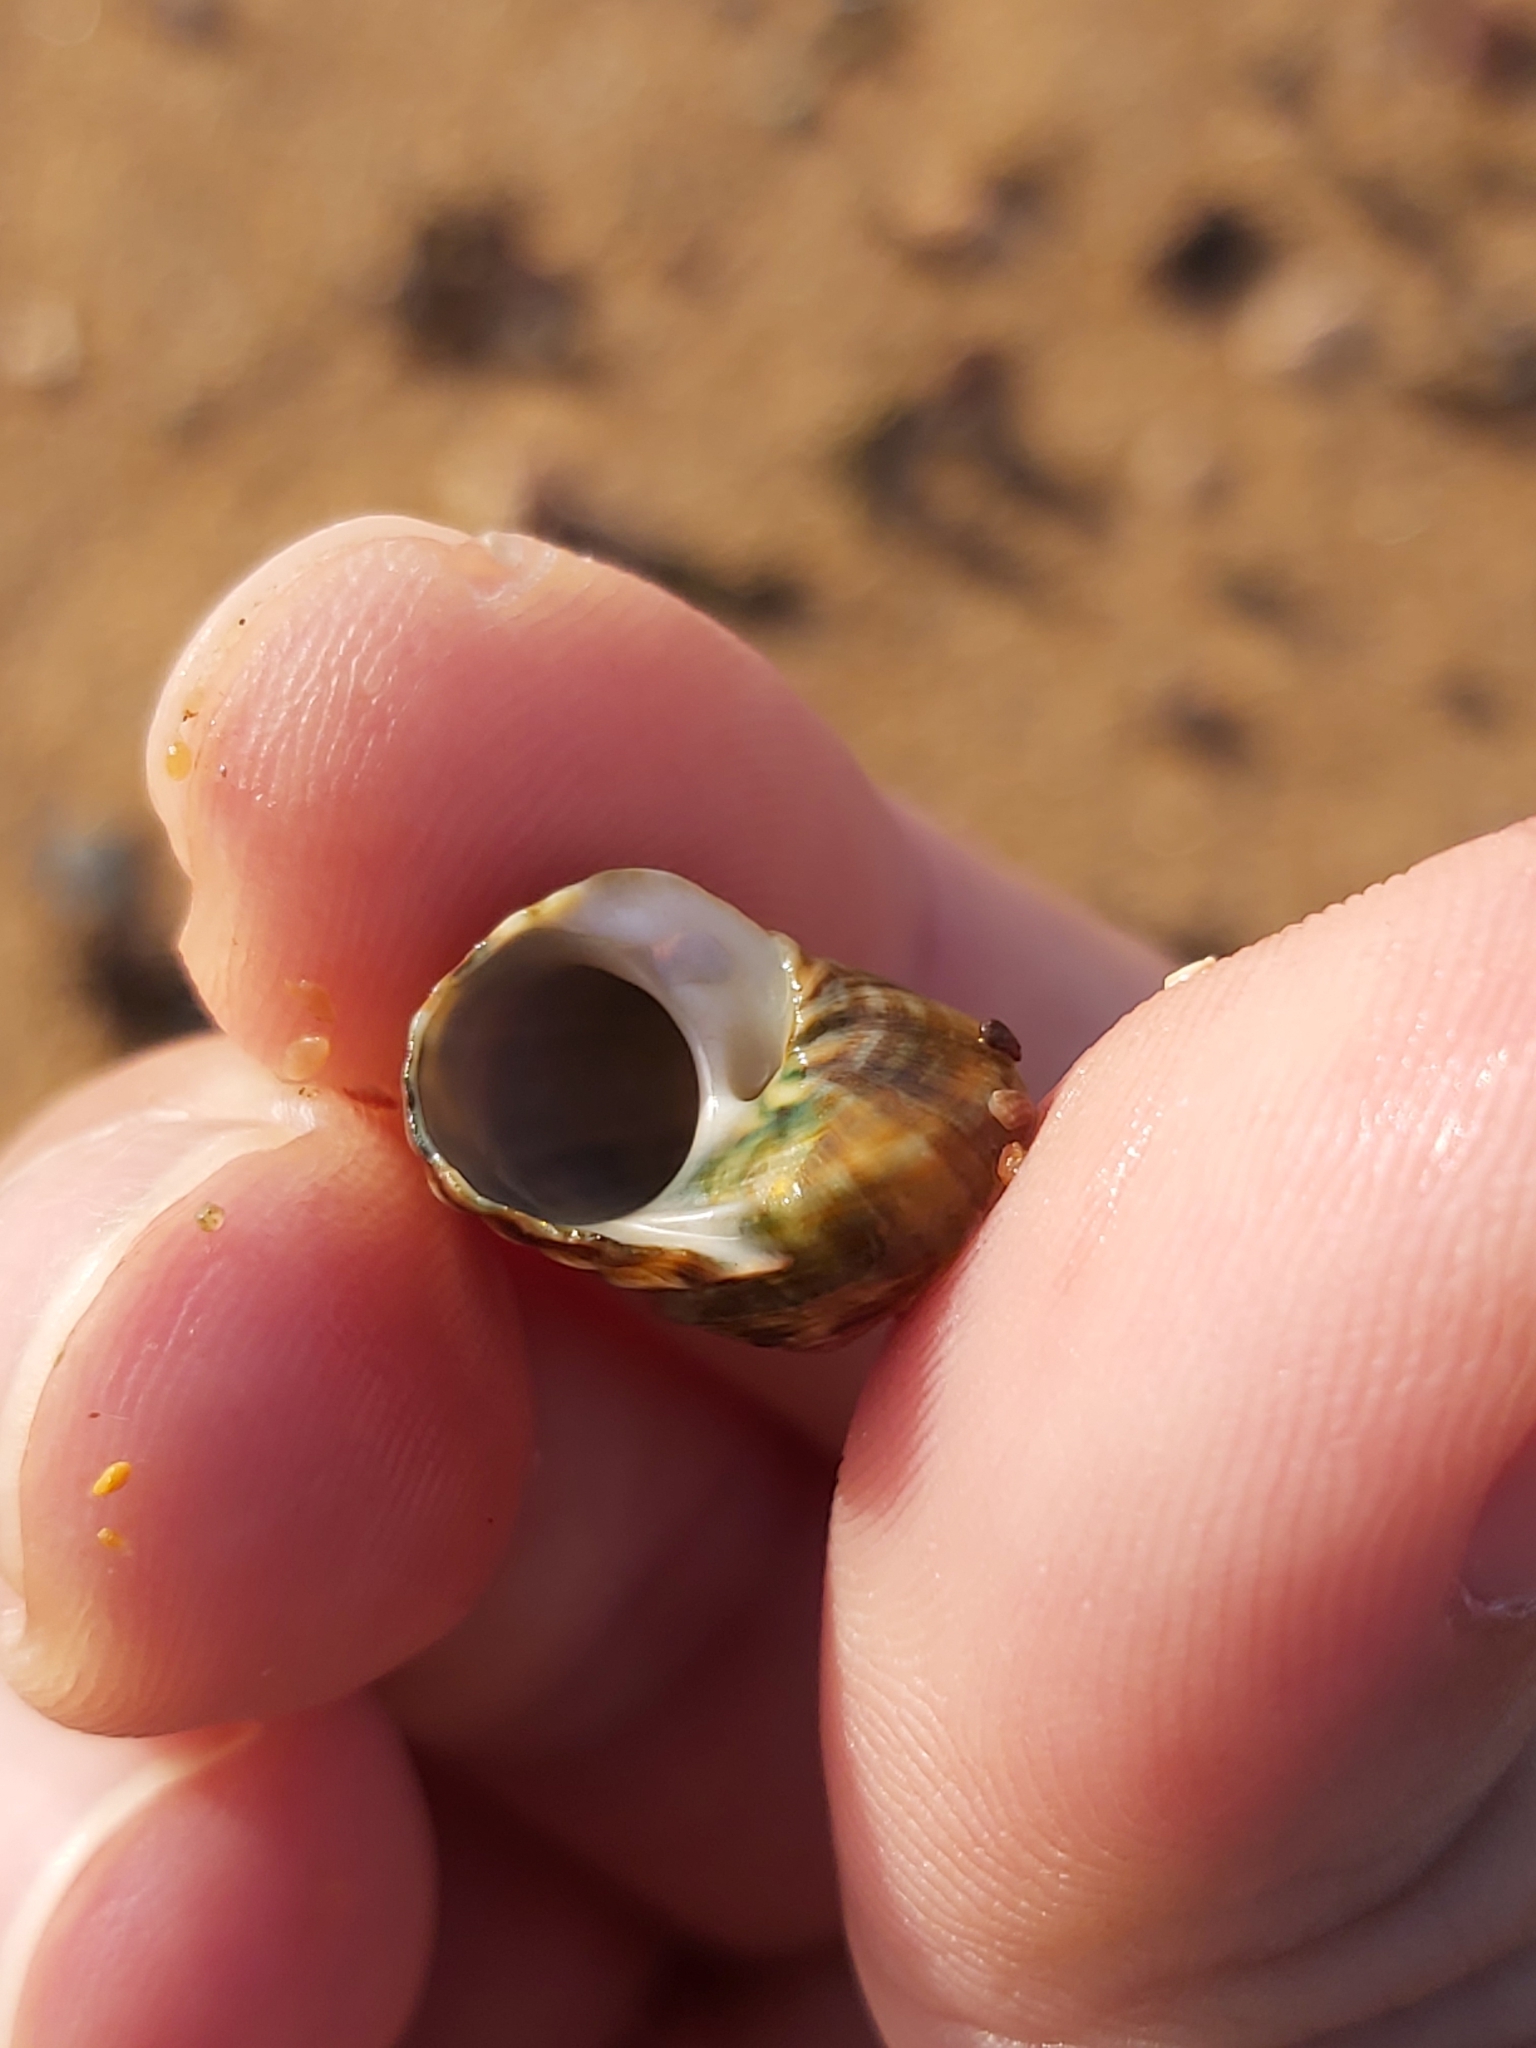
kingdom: Animalia
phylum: Mollusca
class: Gastropoda
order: Trochida
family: Turbinidae
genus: Lunella
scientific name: Lunella undulata
